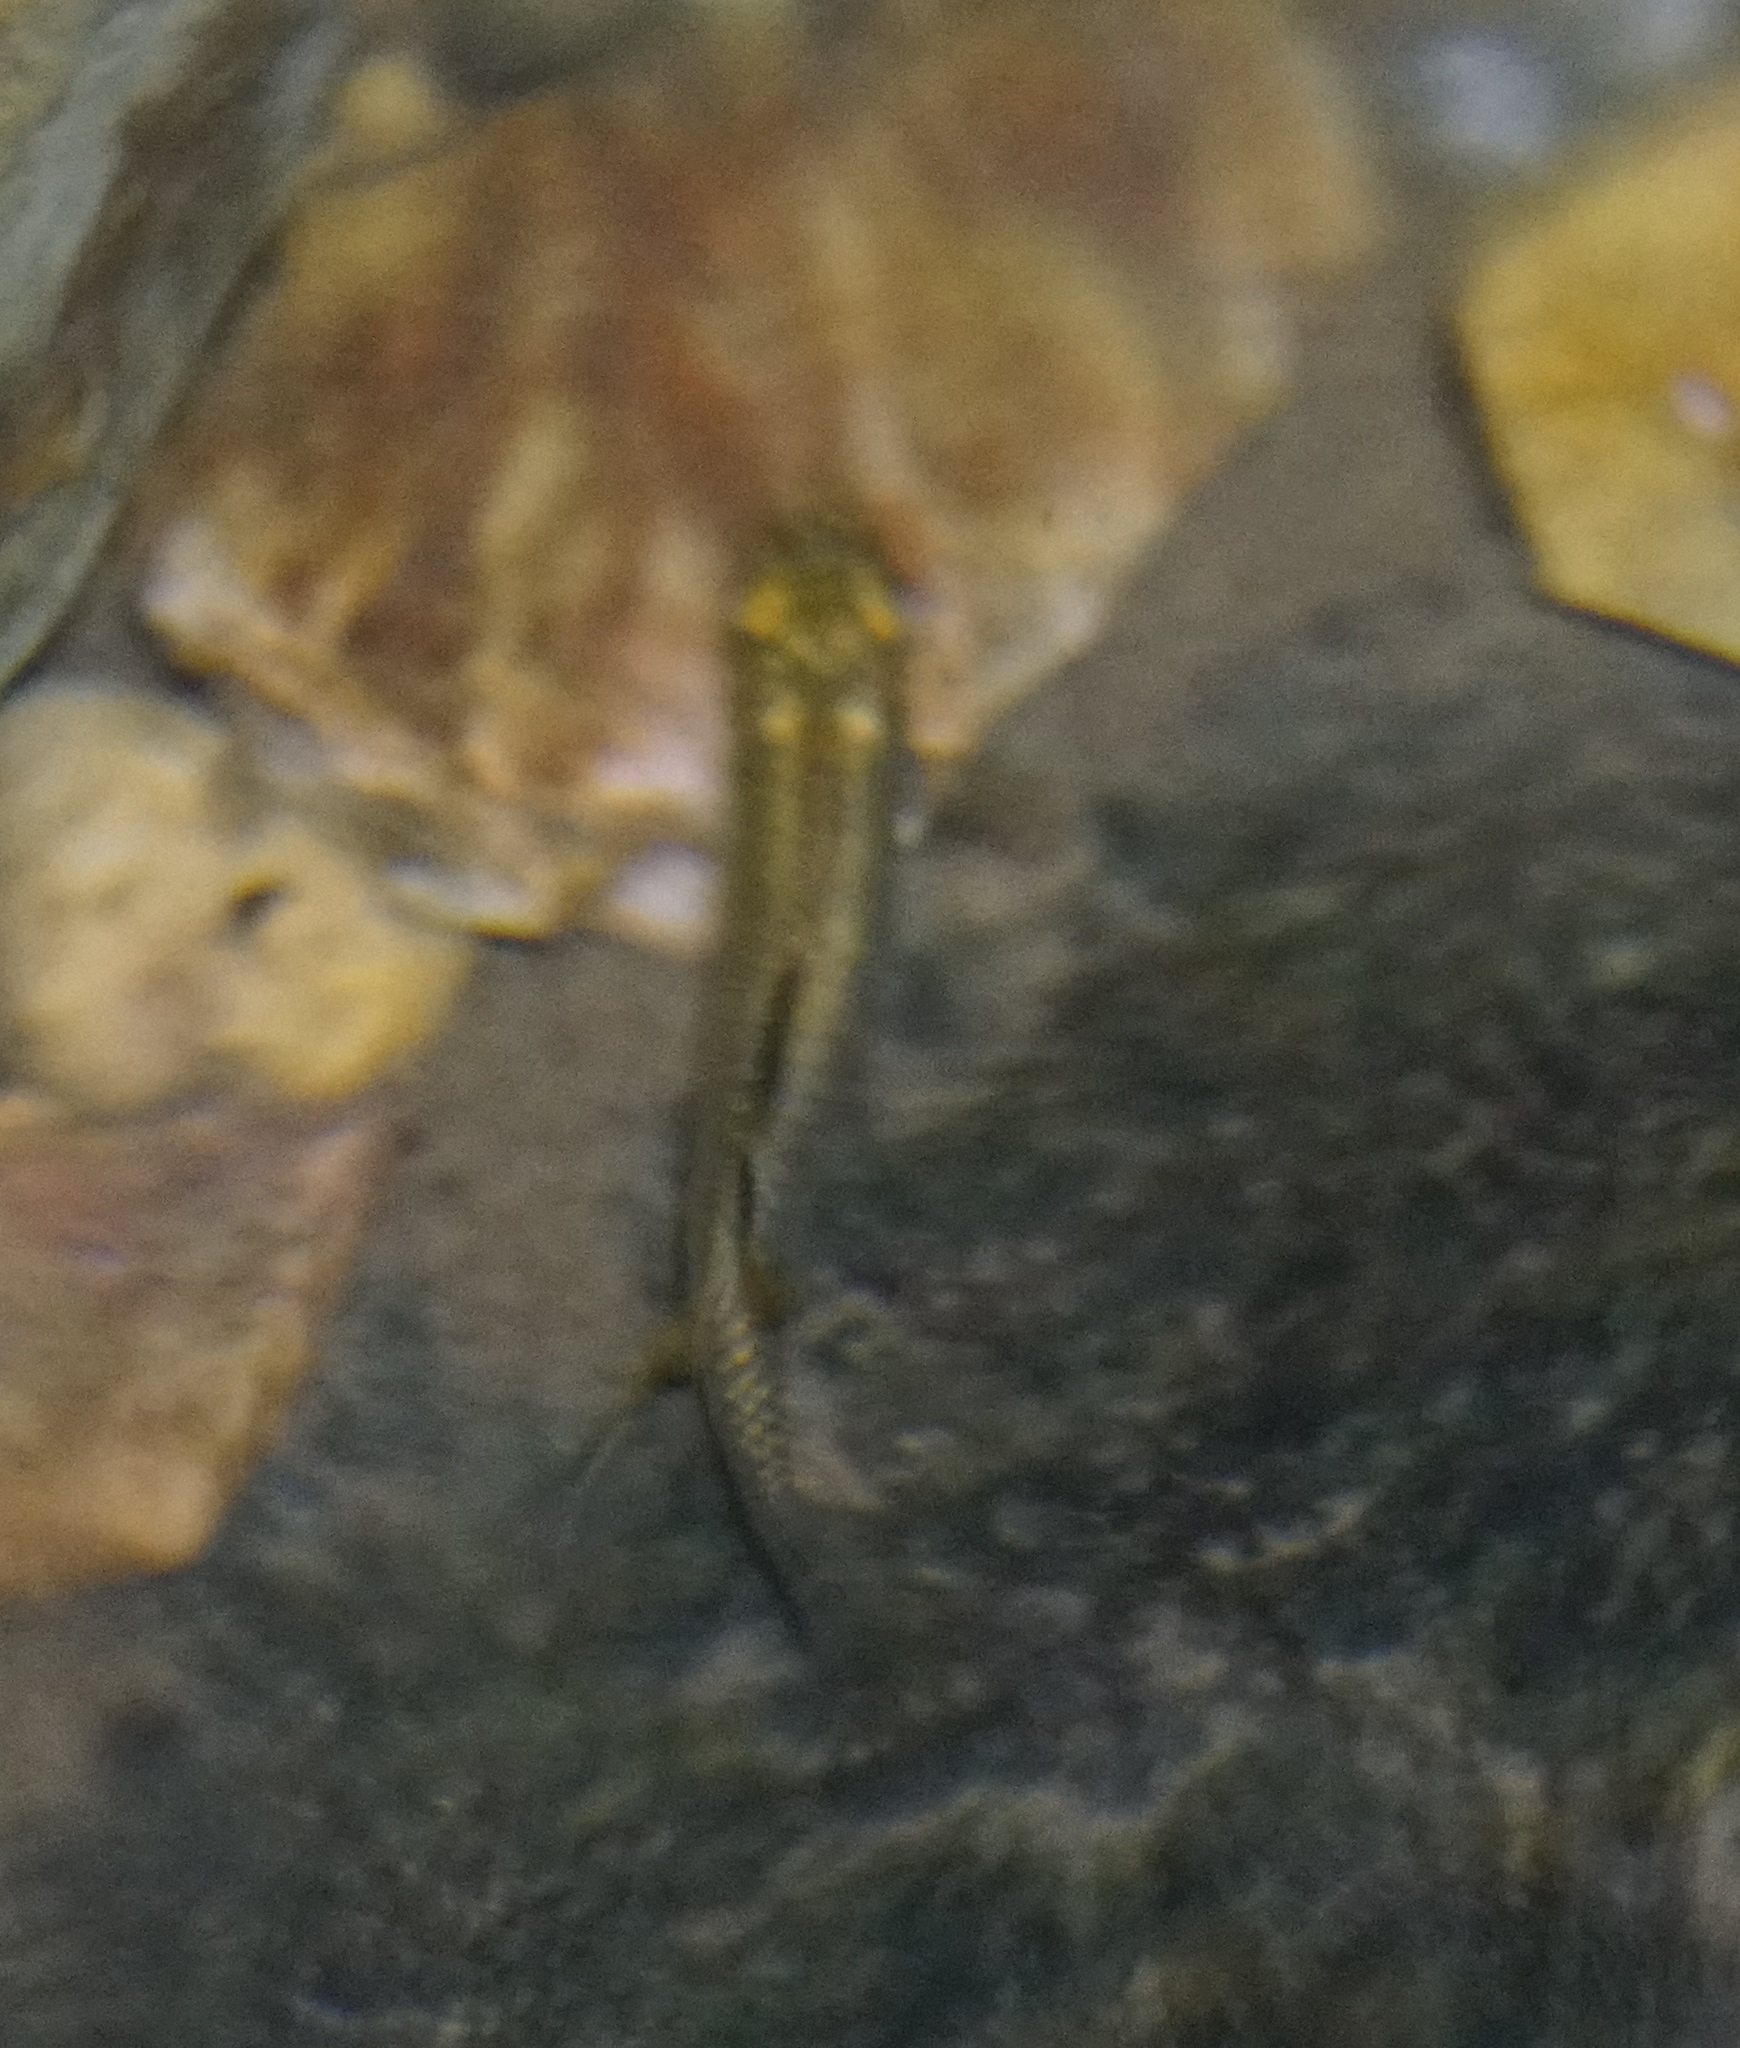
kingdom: Animalia
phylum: Chordata
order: Atheriniformes
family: Pseudomugilidae
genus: Pseudomugil
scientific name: Pseudomugil signifer
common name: Blue eye
